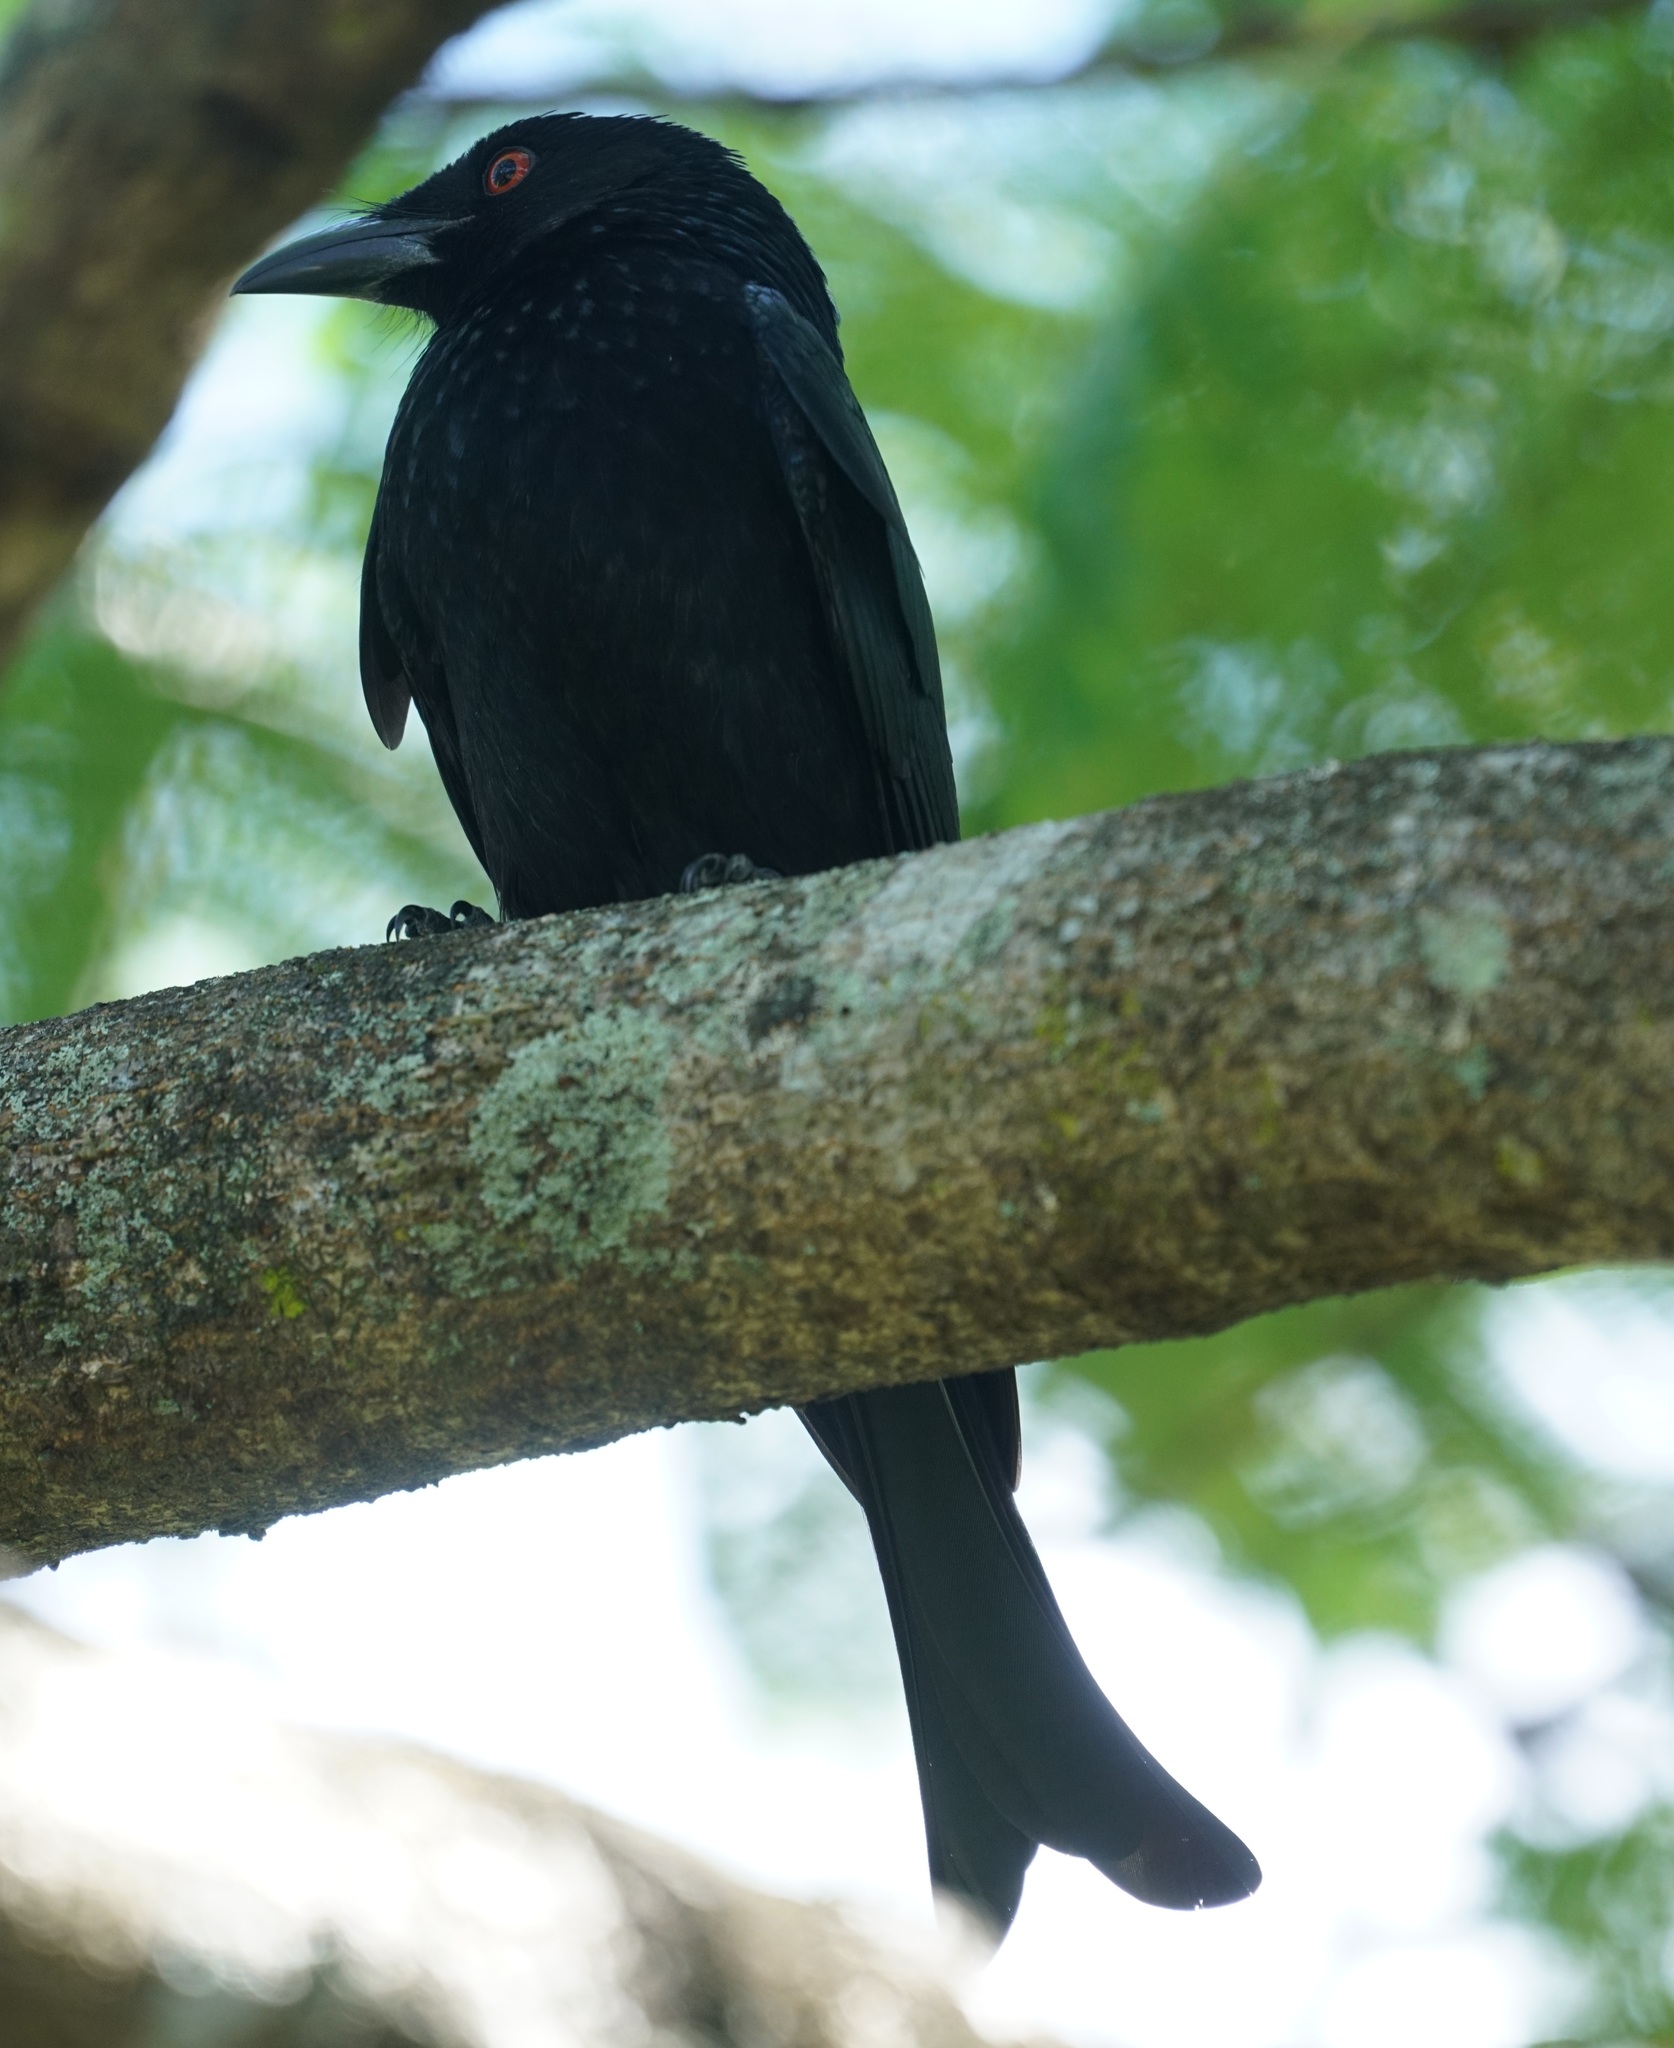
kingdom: Animalia
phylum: Chordata
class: Aves
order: Passeriformes
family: Dicruridae
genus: Dicrurus
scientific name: Dicrurus bracteatus
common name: Spangled drongo
